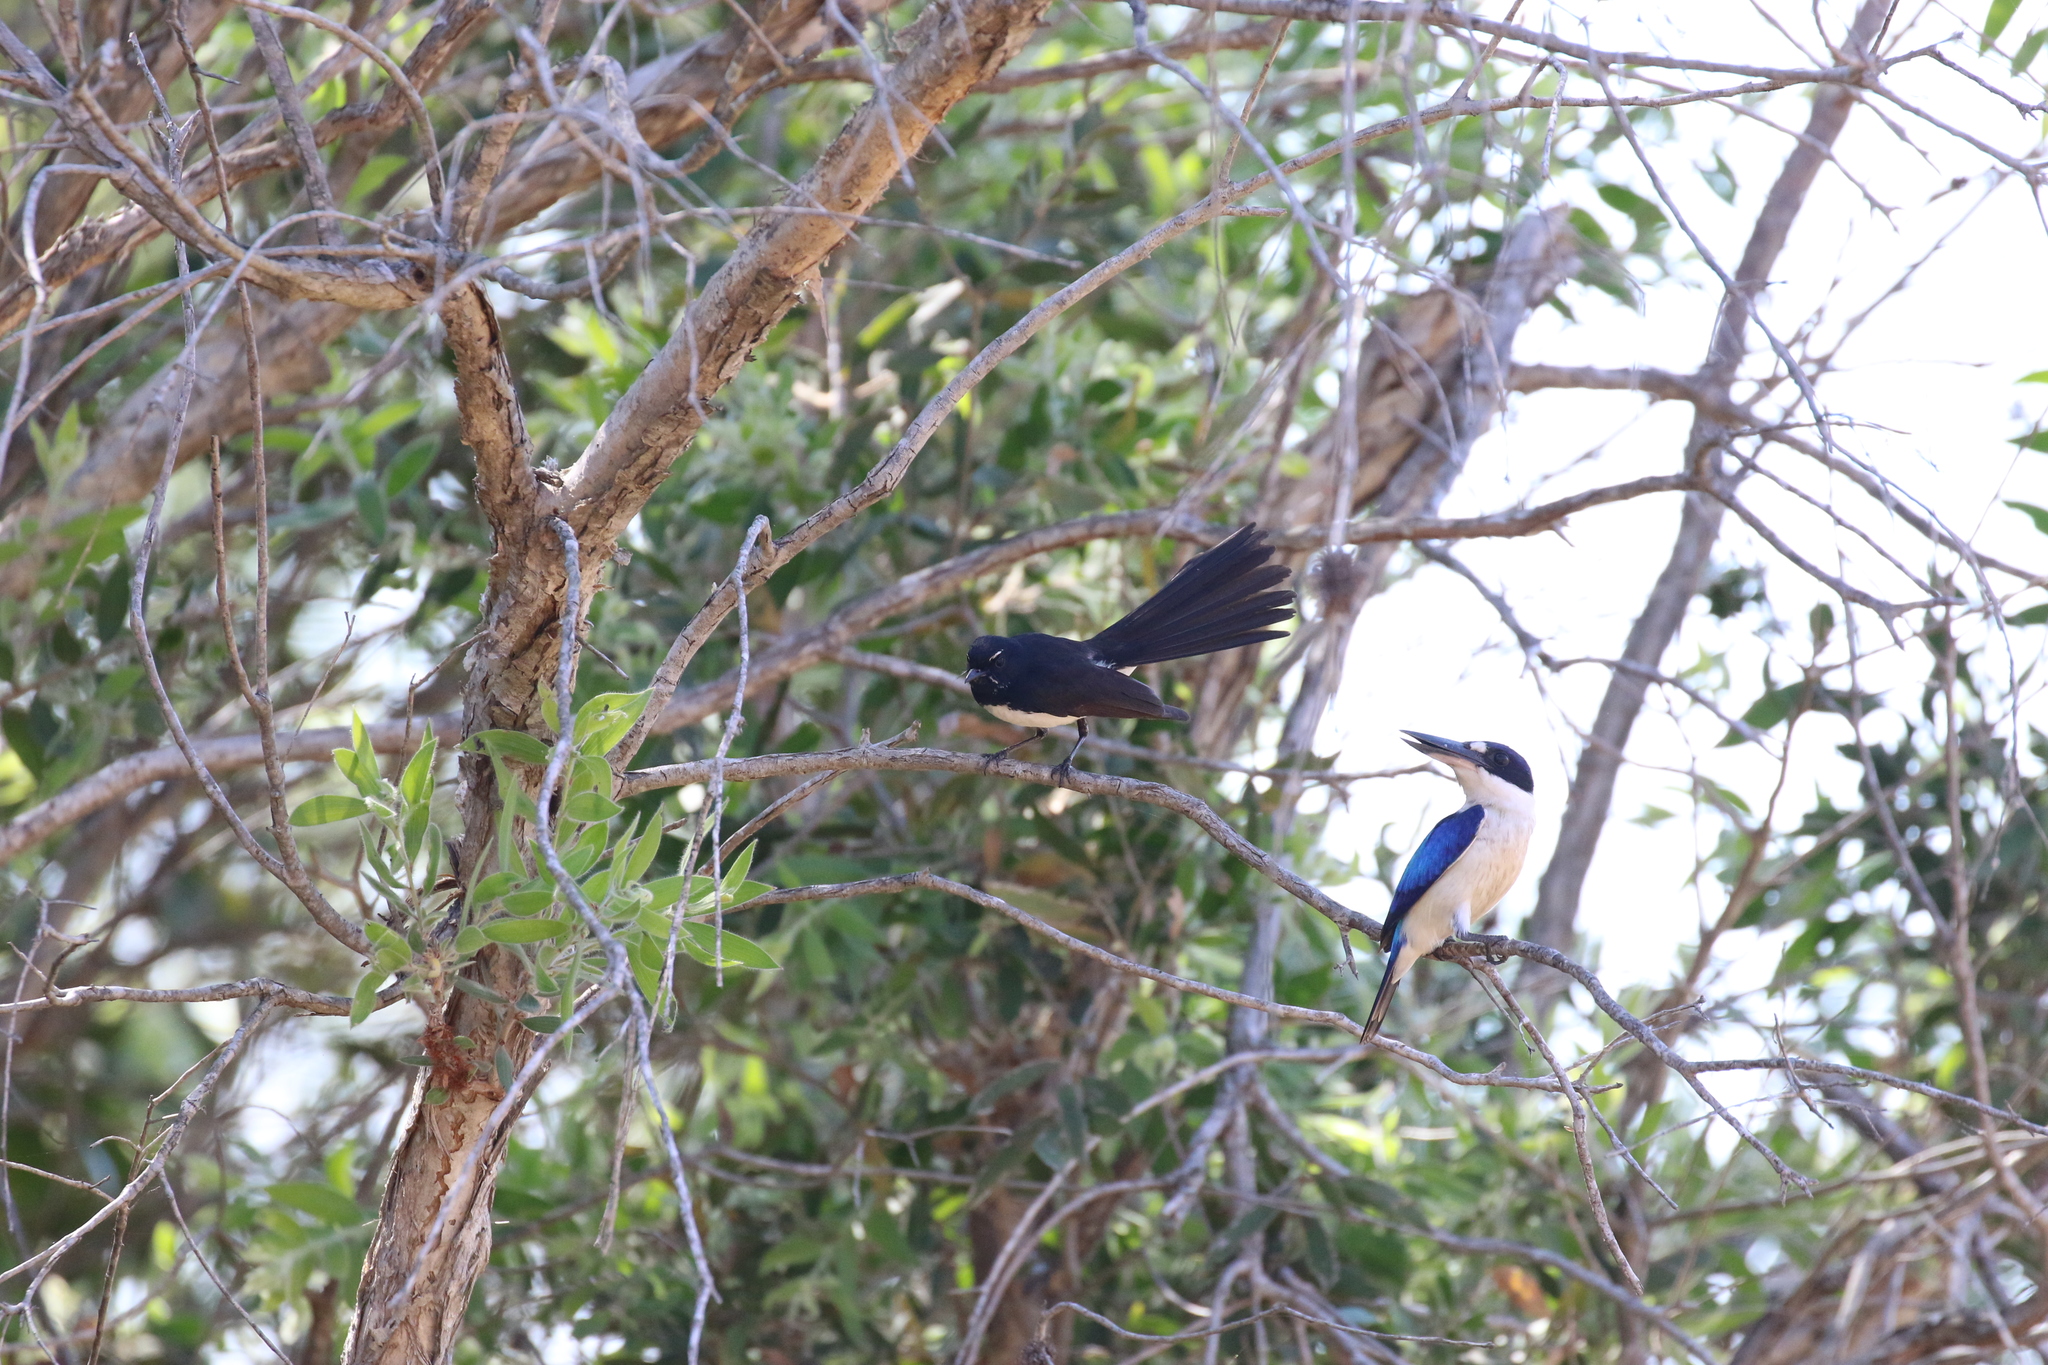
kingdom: Animalia
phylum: Chordata
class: Aves
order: Passeriformes
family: Rhipiduridae
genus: Rhipidura
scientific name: Rhipidura leucophrys
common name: Willie wagtail
